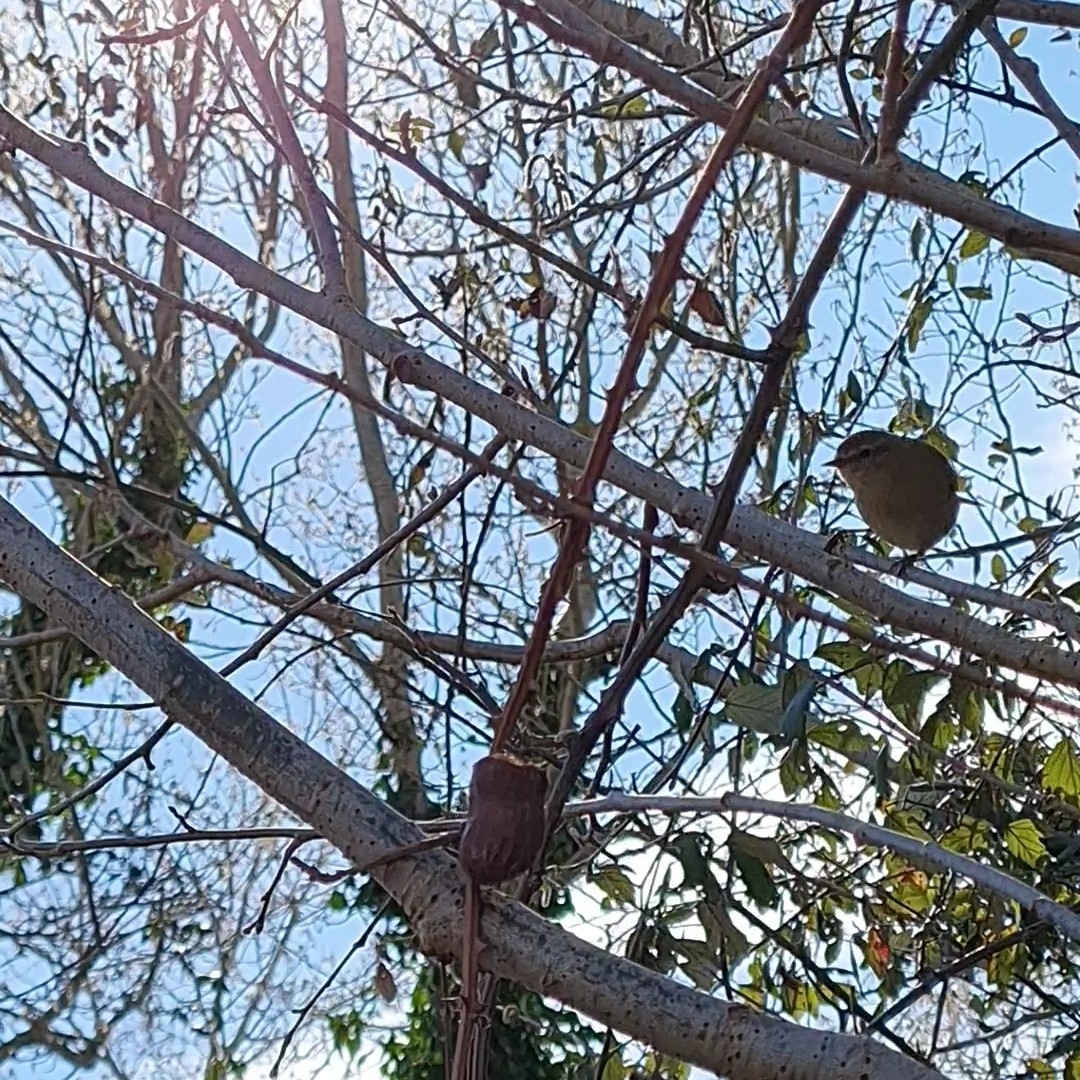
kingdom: Animalia
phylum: Chordata
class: Aves
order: Passeriformes
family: Phylloscopidae
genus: Phylloscopus
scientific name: Phylloscopus collybita
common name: Common chiffchaff
